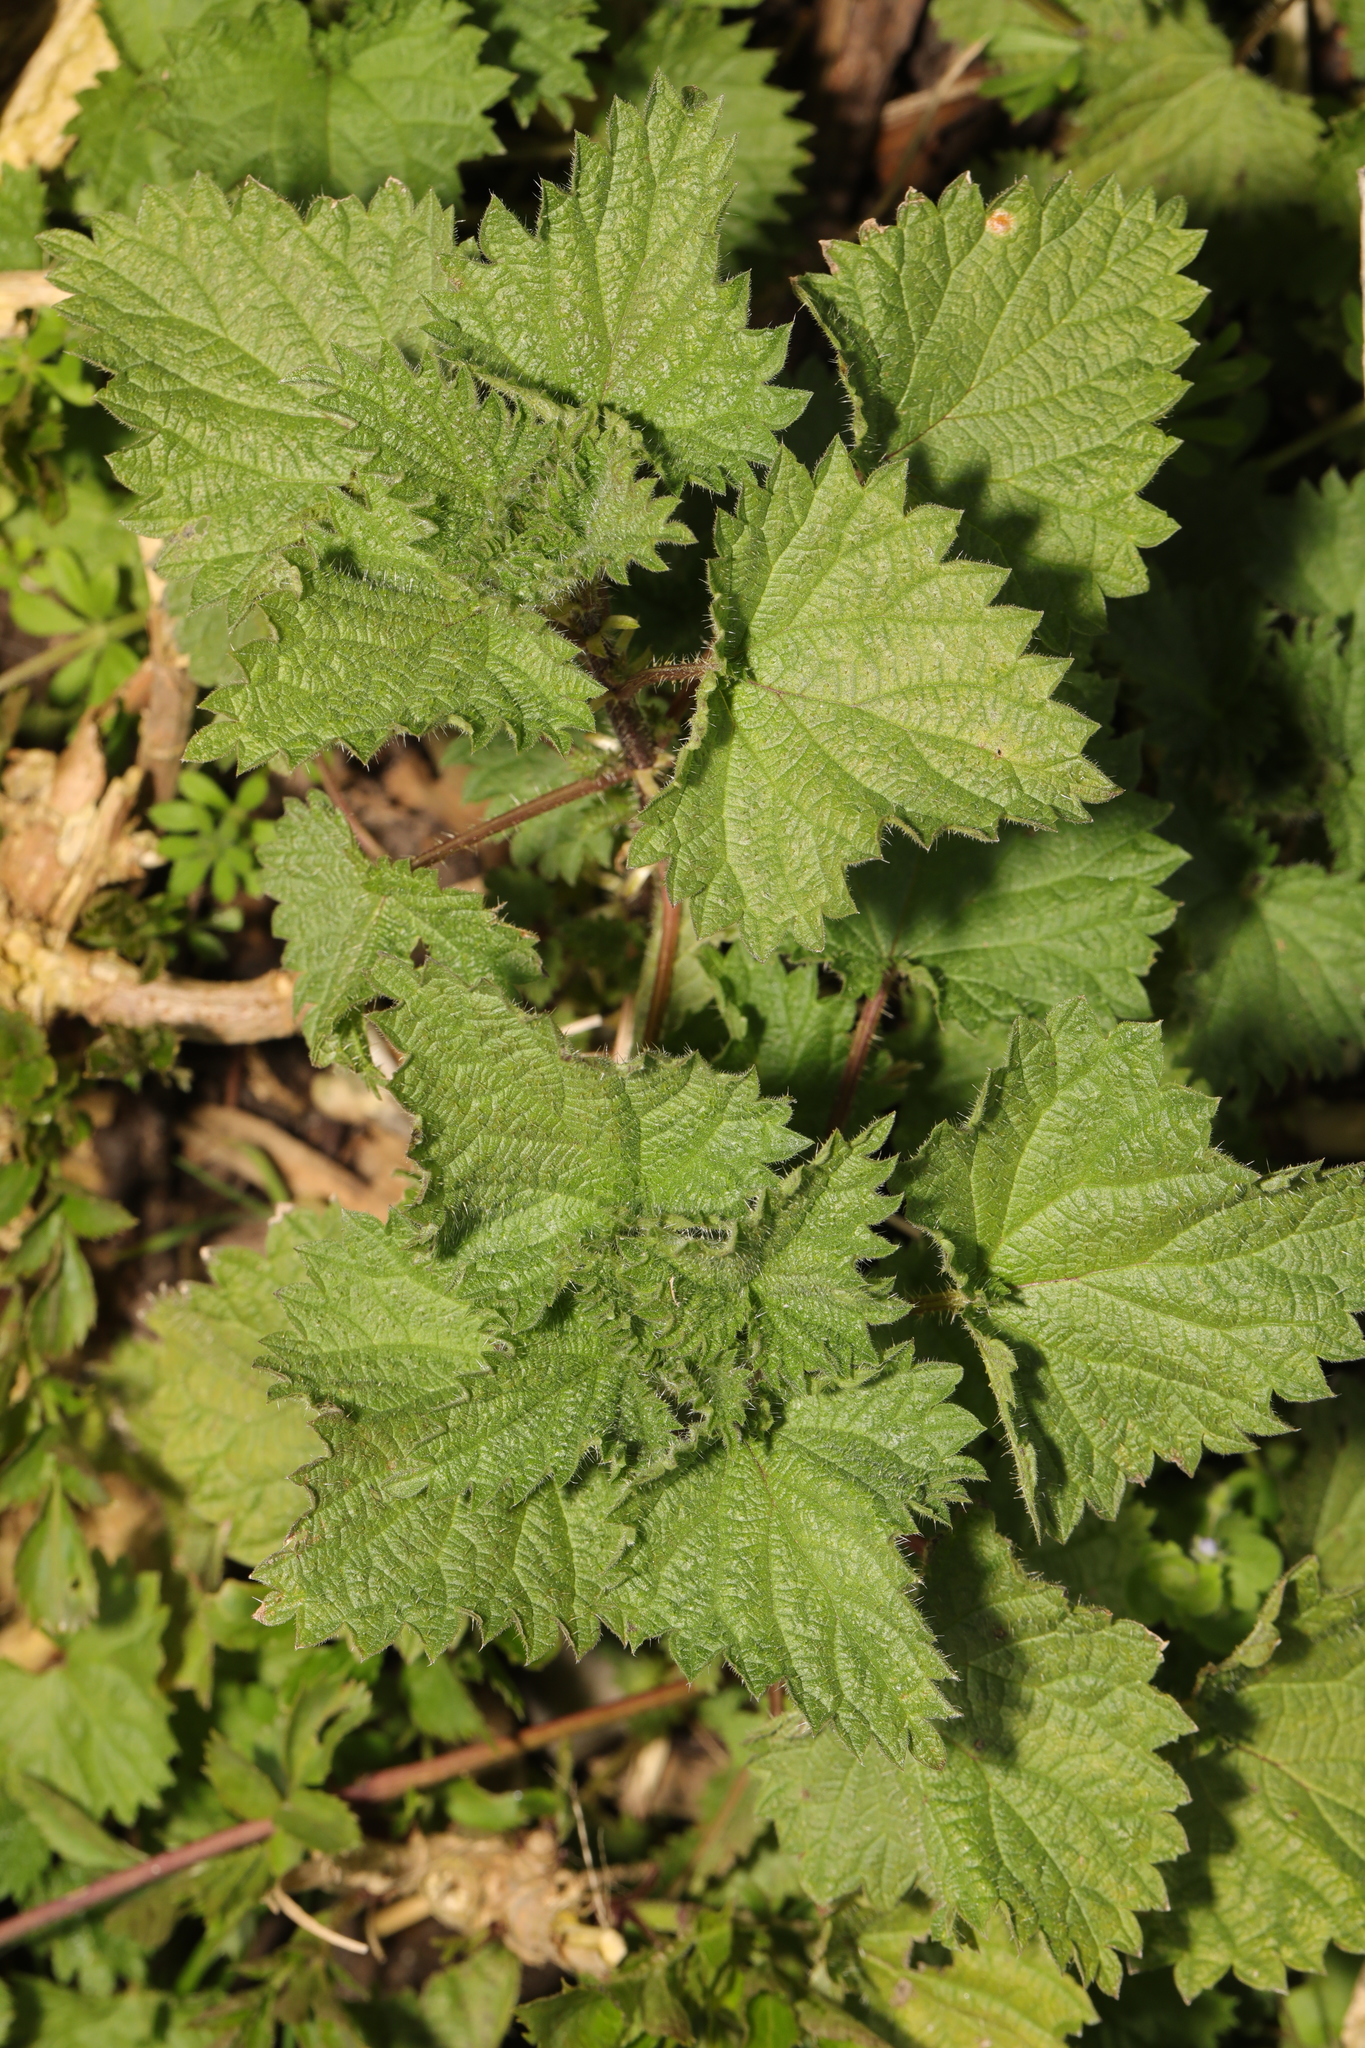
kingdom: Plantae
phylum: Tracheophyta
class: Magnoliopsida
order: Rosales
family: Urticaceae
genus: Urtica
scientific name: Urtica dioica
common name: Common nettle
